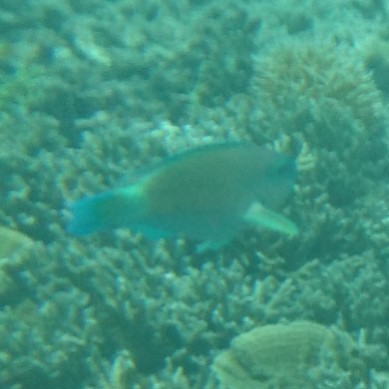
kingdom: Animalia
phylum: Chordata
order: Perciformes
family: Scaridae
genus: Chlorurus
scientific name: Chlorurus spilurus
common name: Bullethead parrotfish
